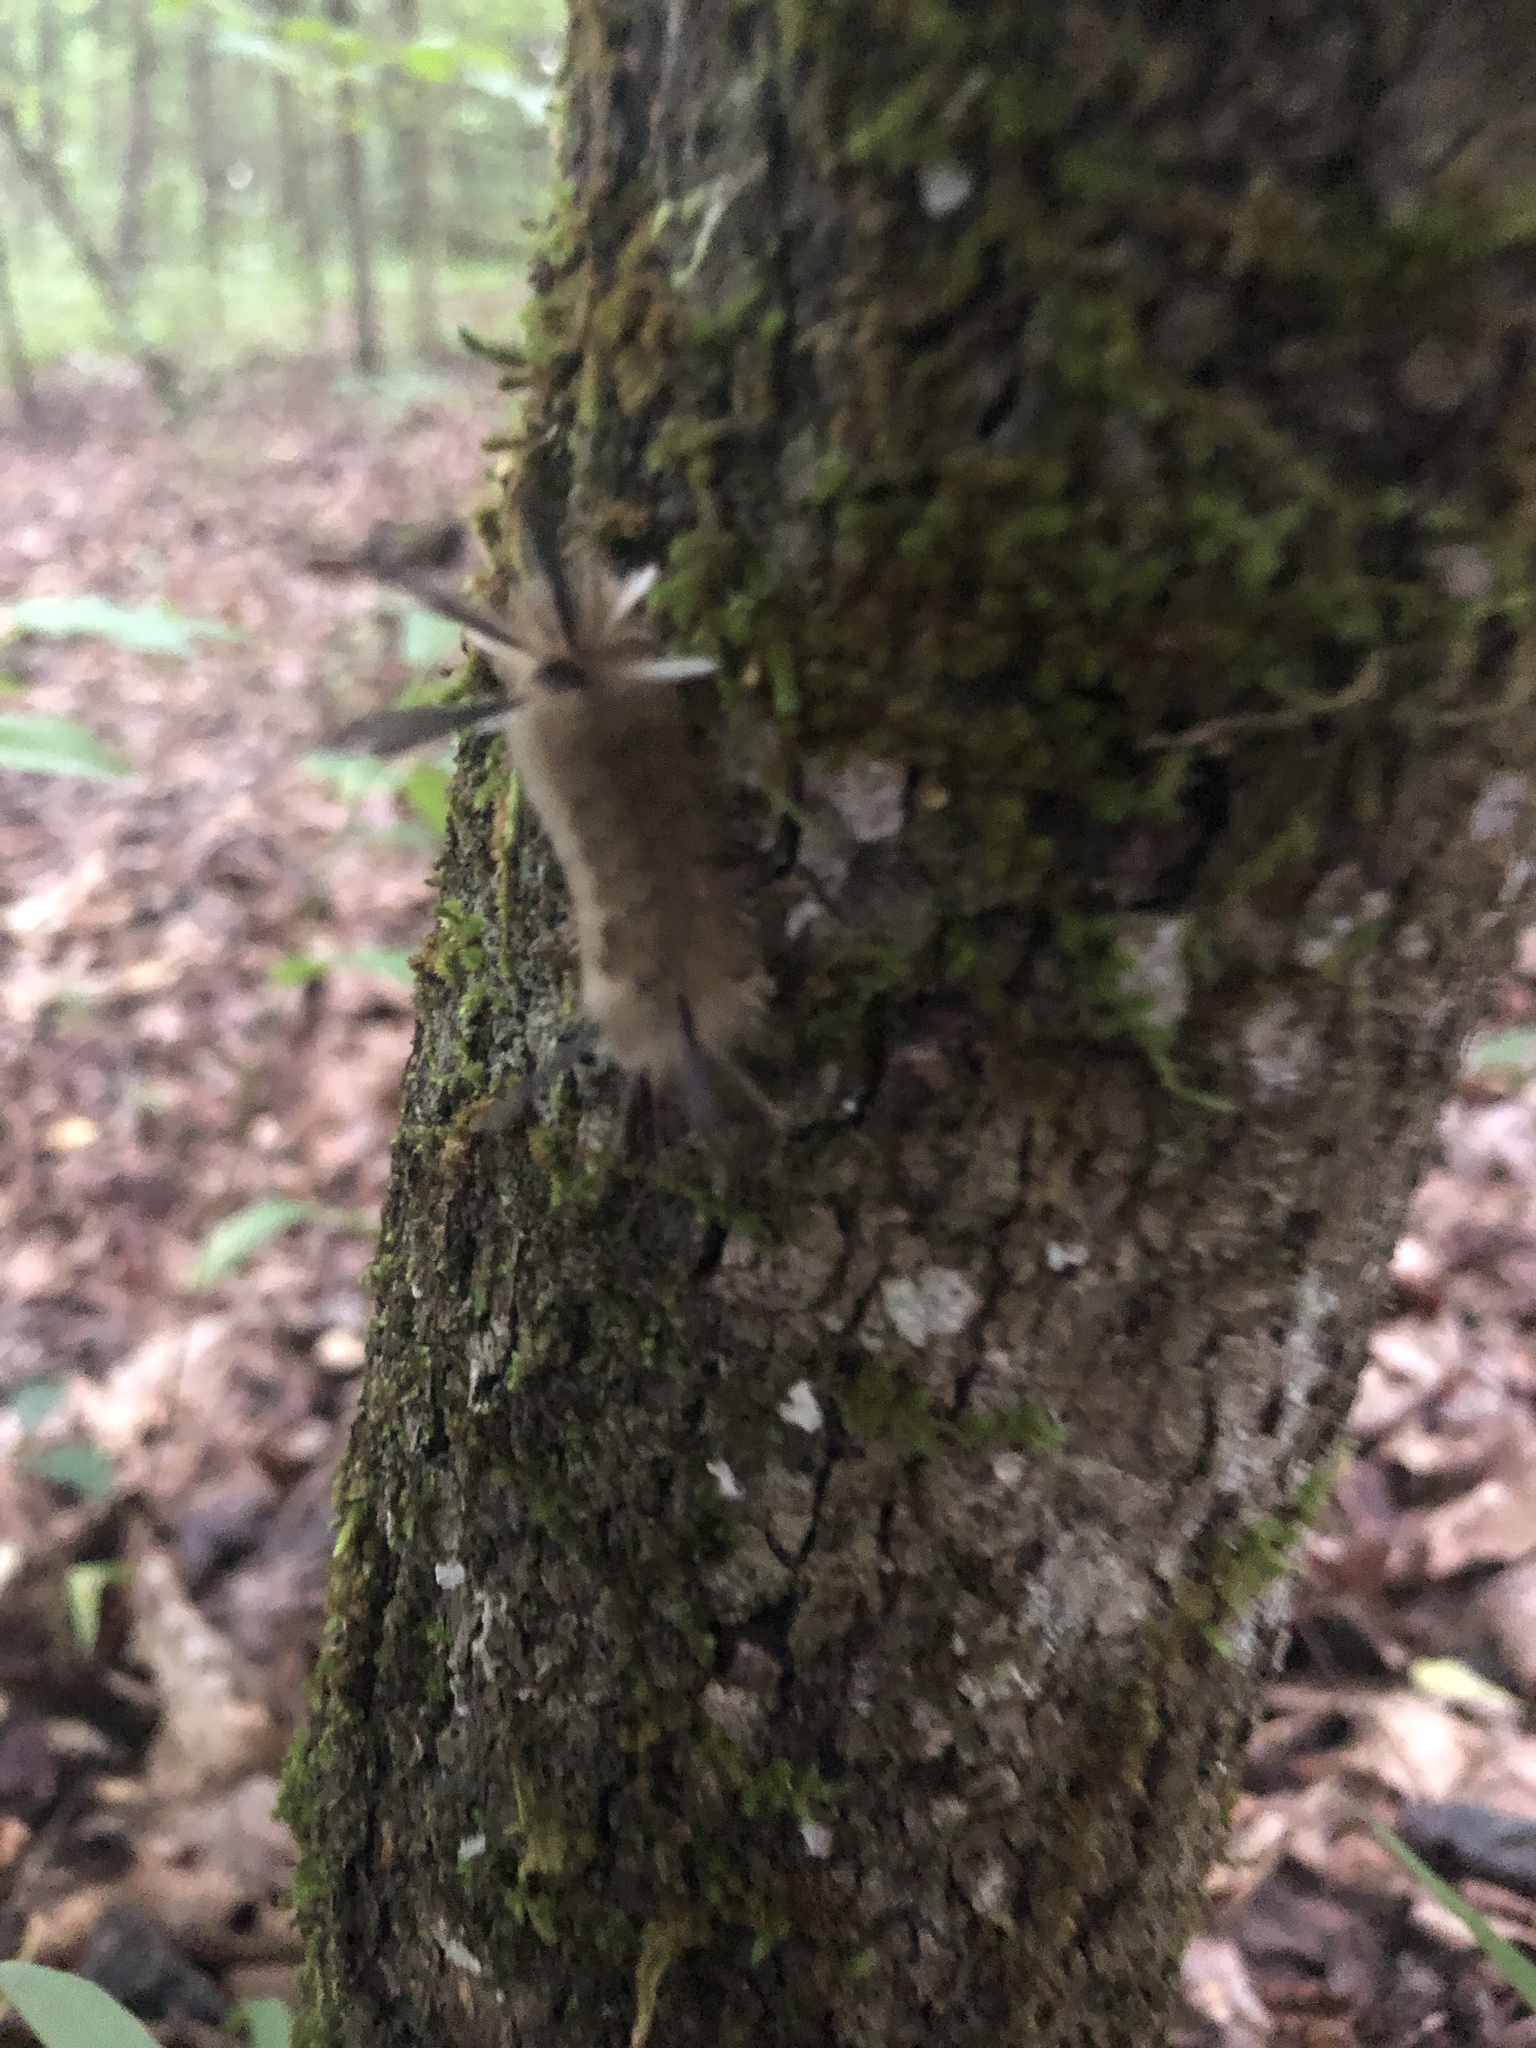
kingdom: Animalia
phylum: Arthropoda
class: Insecta
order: Lepidoptera
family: Erebidae
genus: Halysidota
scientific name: Halysidota tessellaris
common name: Banded tussock moth
